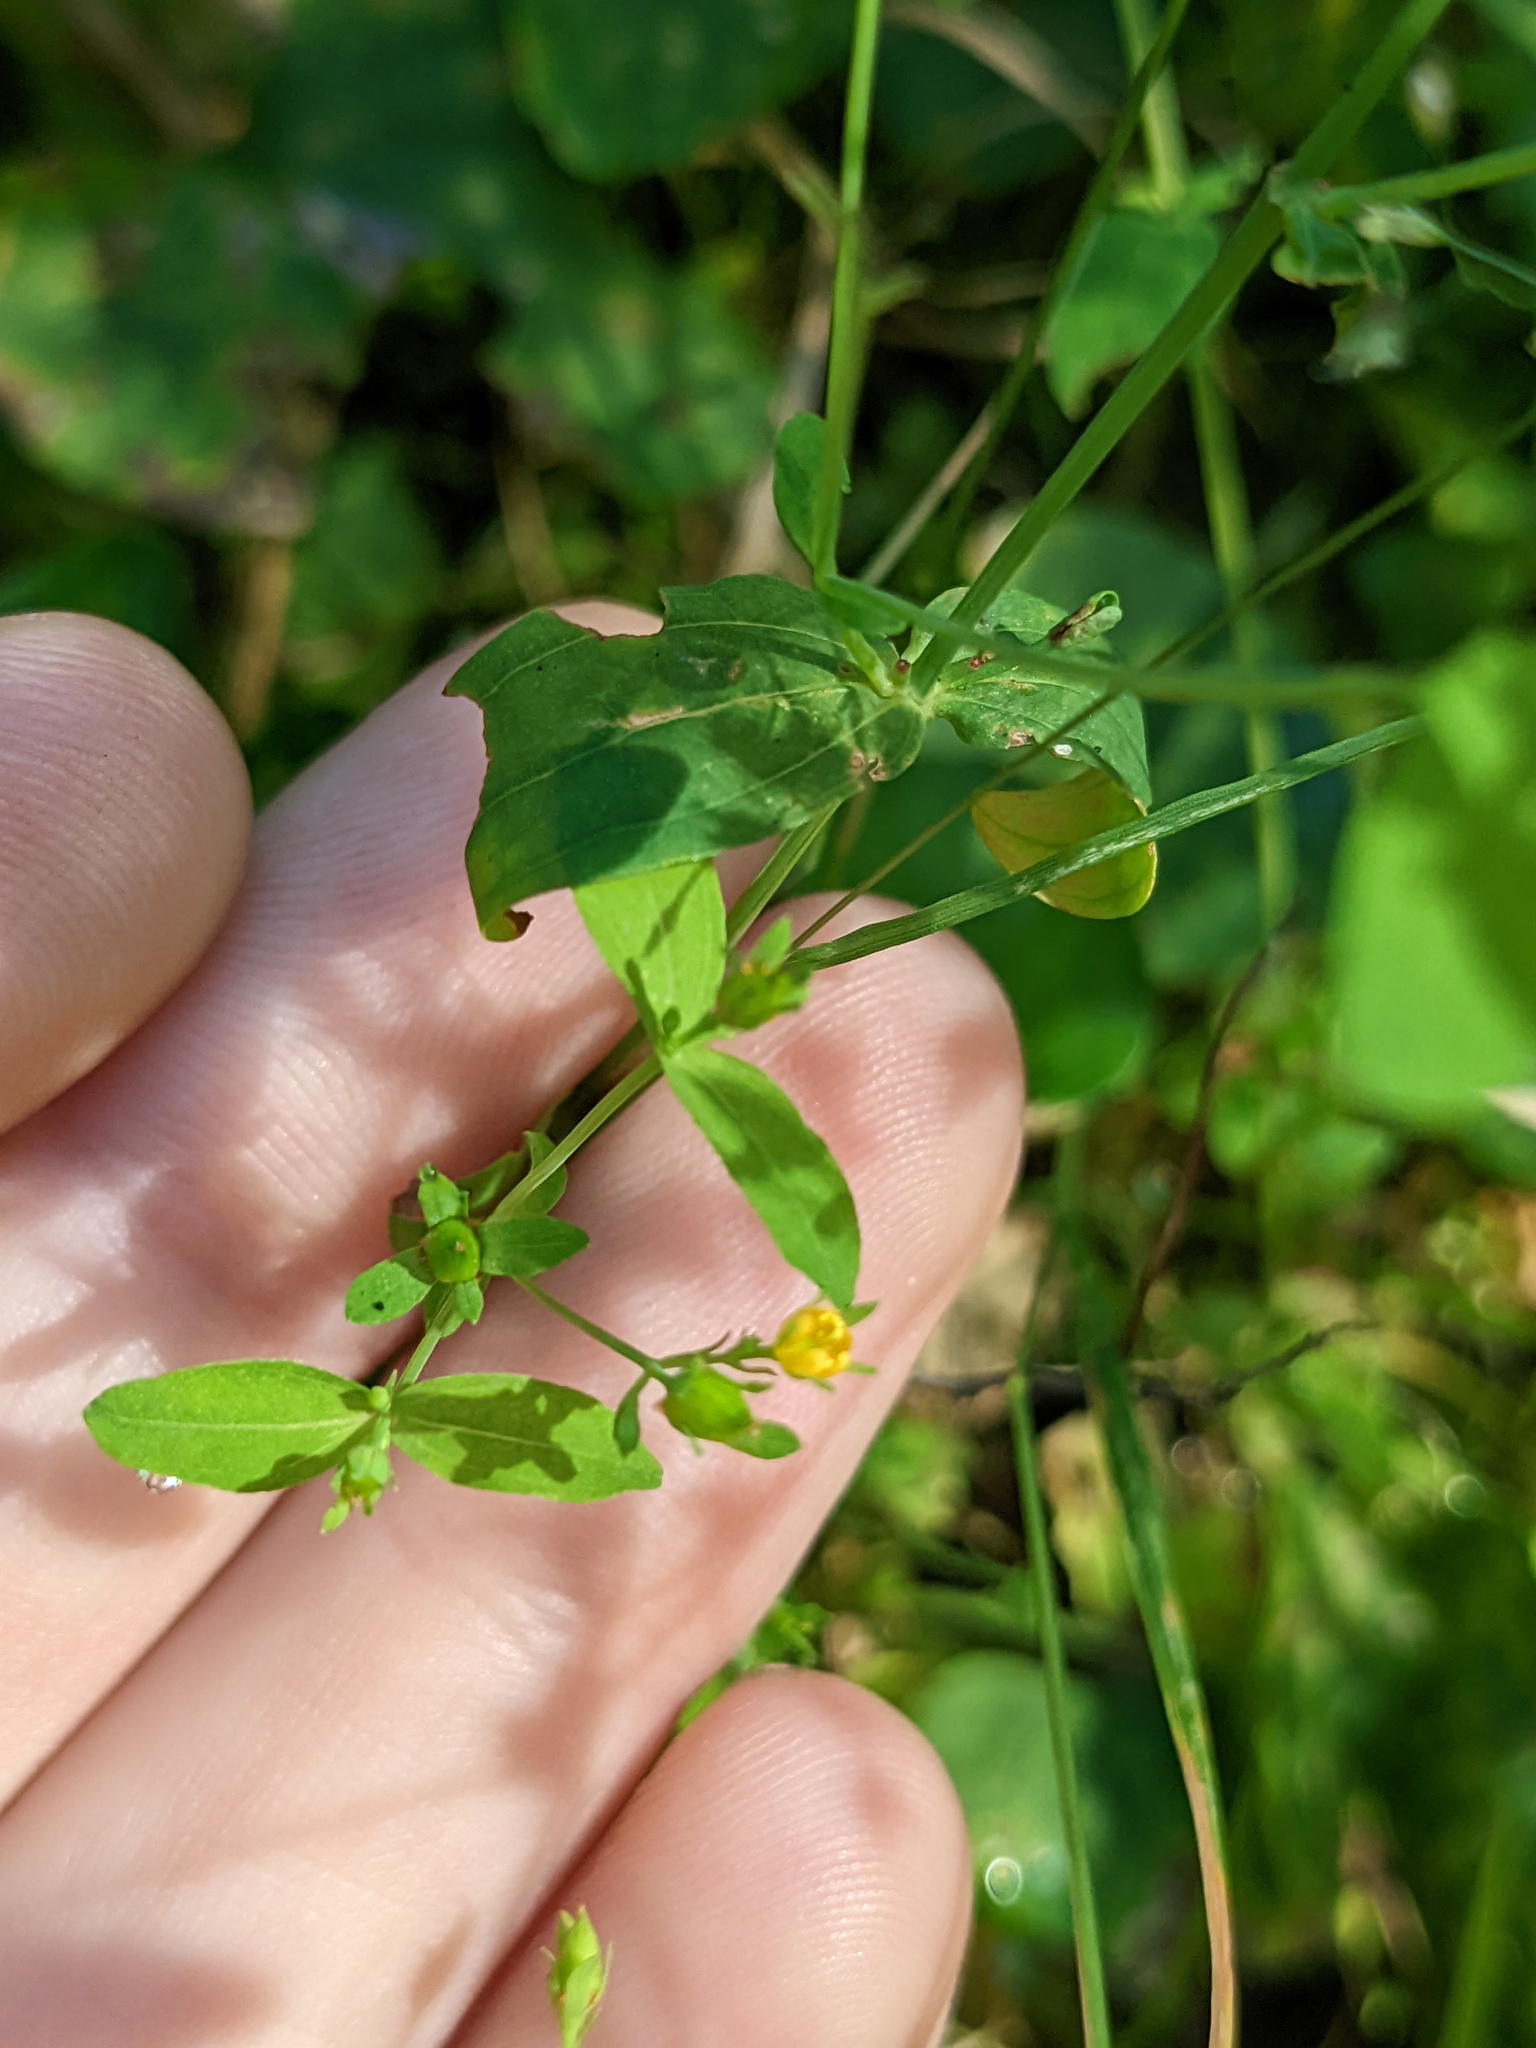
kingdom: Plantae
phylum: Tracheophyta
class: Magnoliopsida
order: Malpighiales
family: Hypericaceae
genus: Hypericum
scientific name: Hypericum mutilum
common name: Dwarf st. john's-wort
